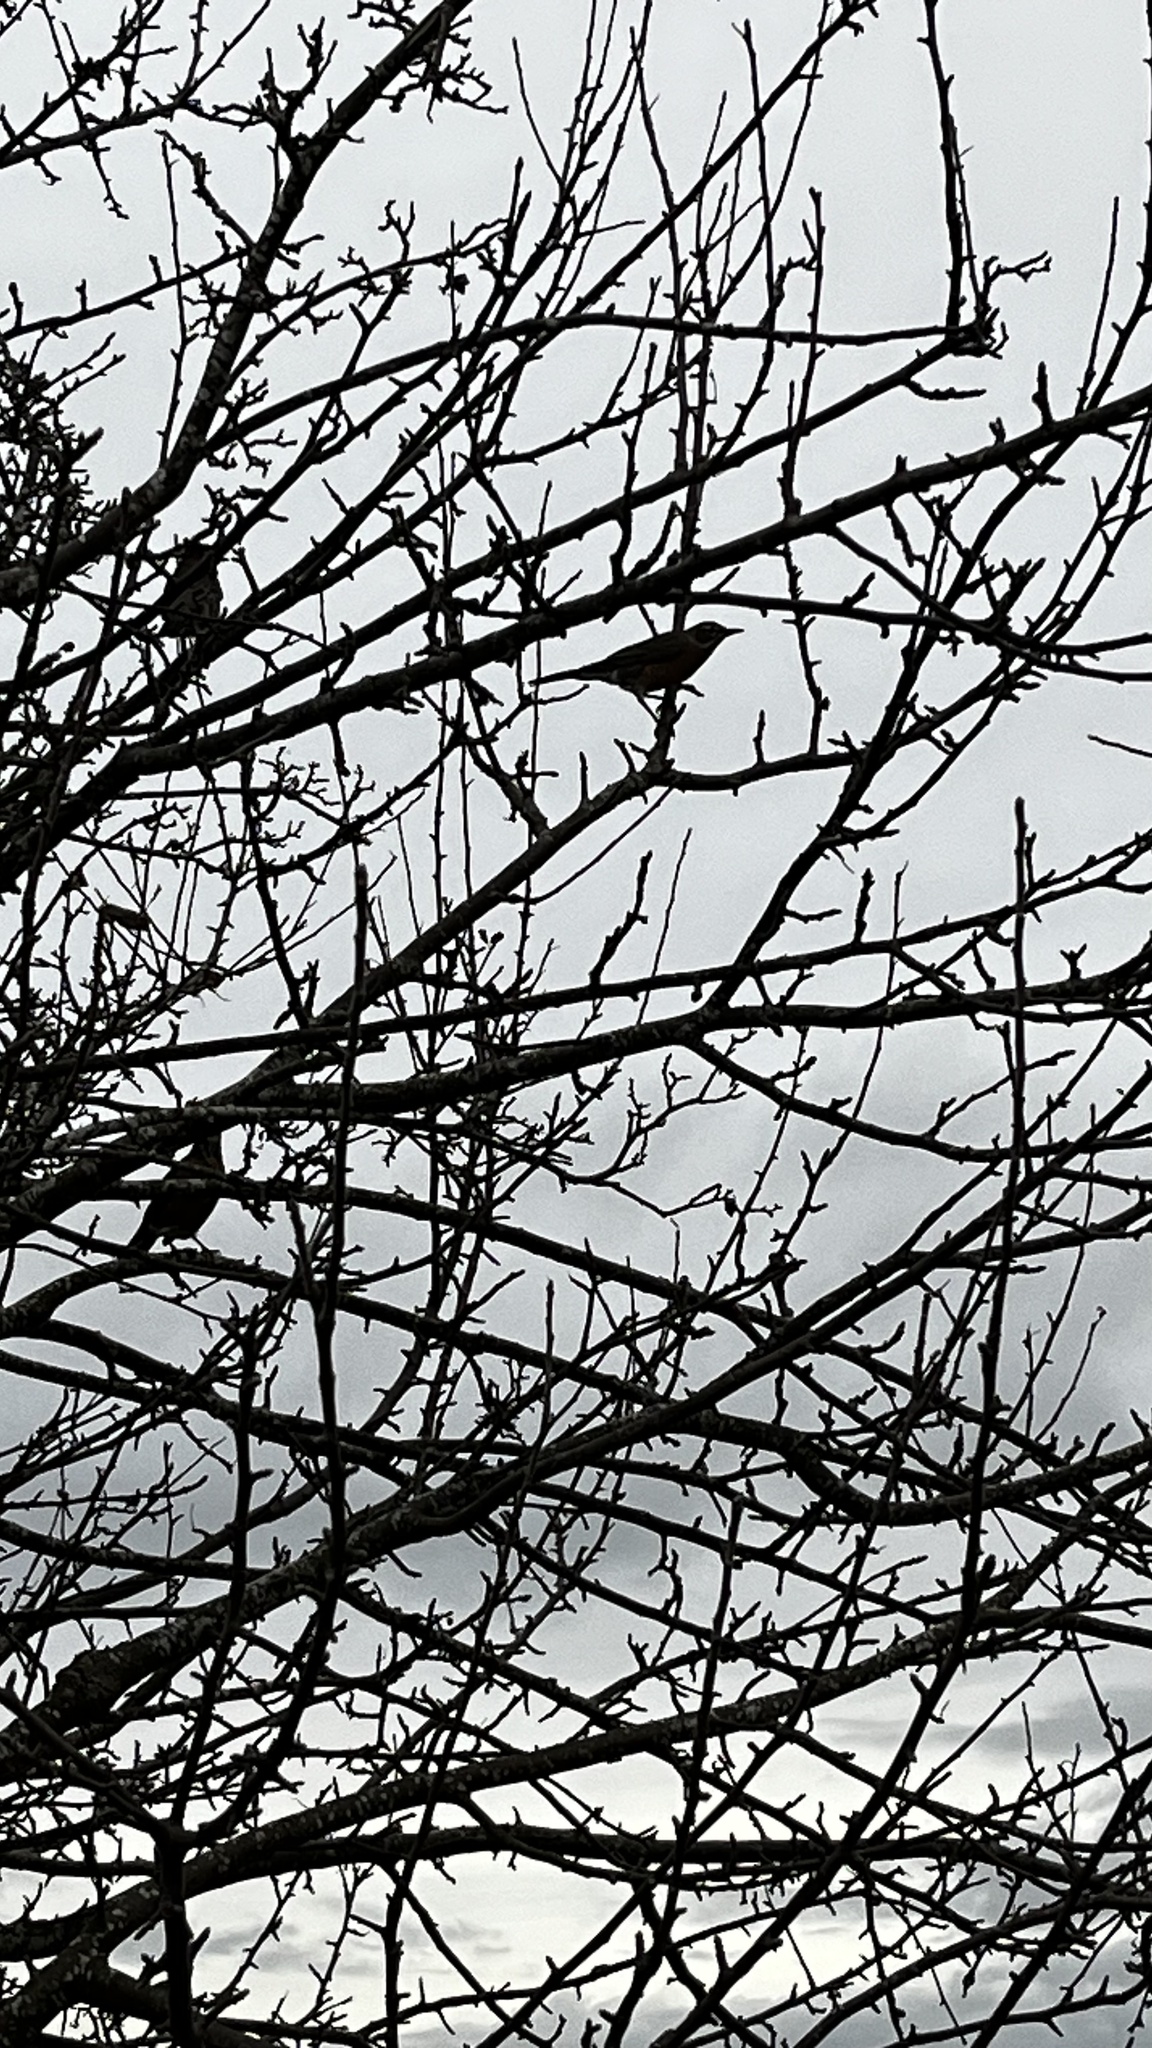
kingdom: Animalia
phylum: Chordata
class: Aves
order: Passeriformes
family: Turdidae
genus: Turdus
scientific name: Turdus migratorius
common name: American robin
